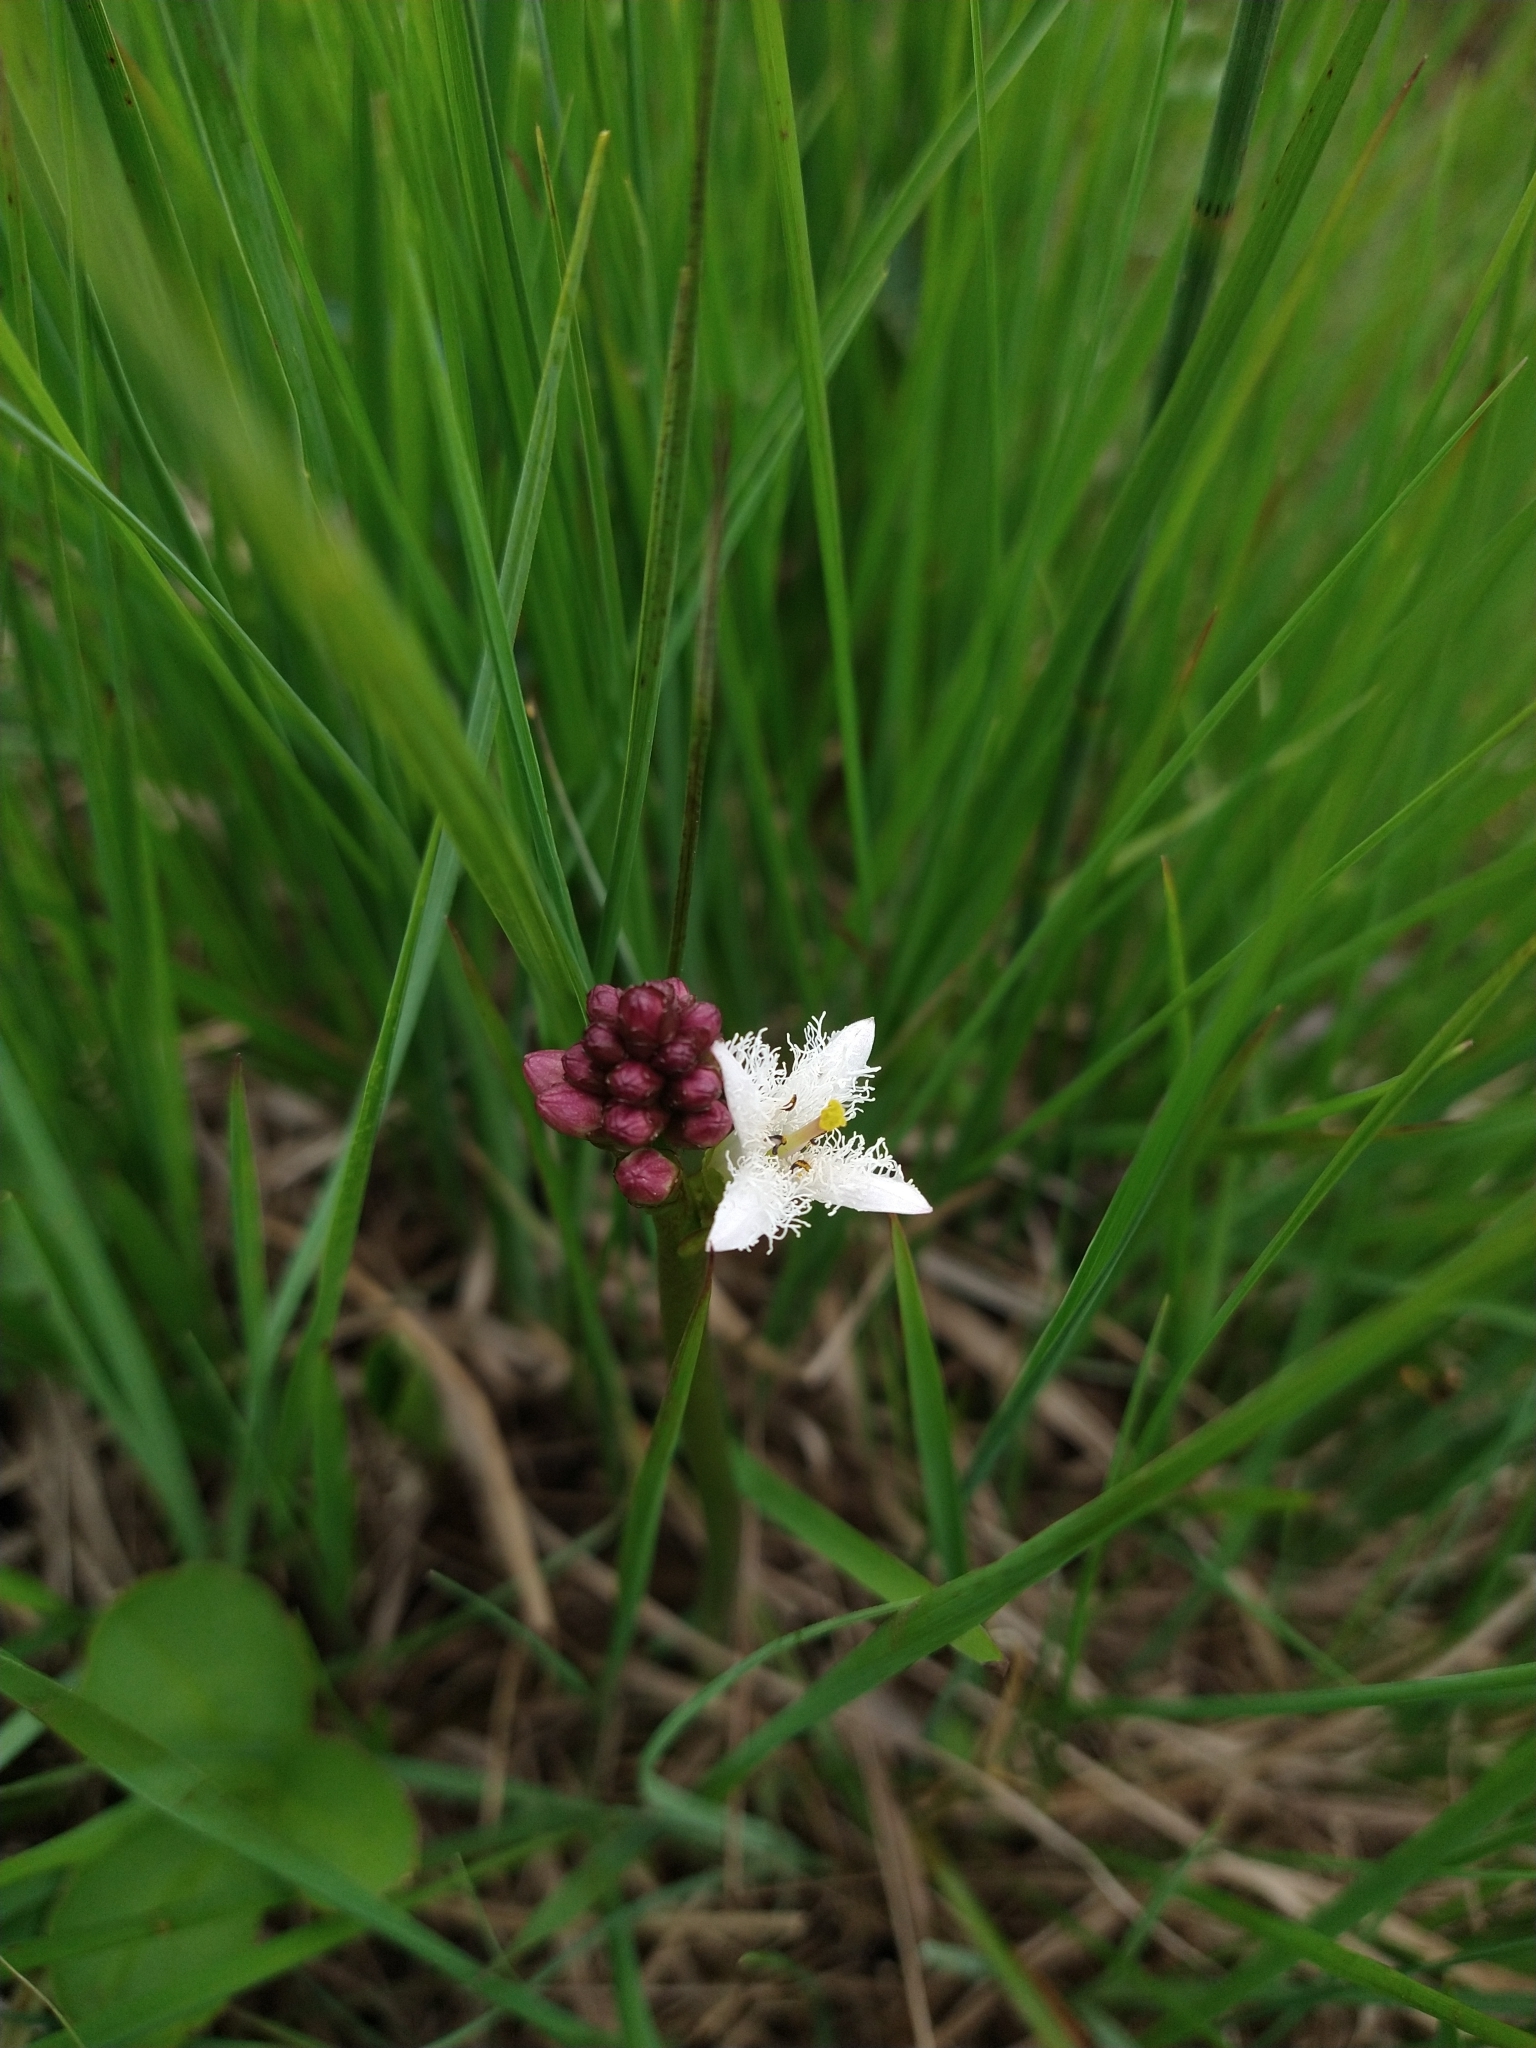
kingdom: Plantae
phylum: Tracheophyta
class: Magnoliopsida
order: Asterales
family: Menyanthaceae
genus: Menyanthes
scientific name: Menyanthes trifoliata
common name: Bogbean
